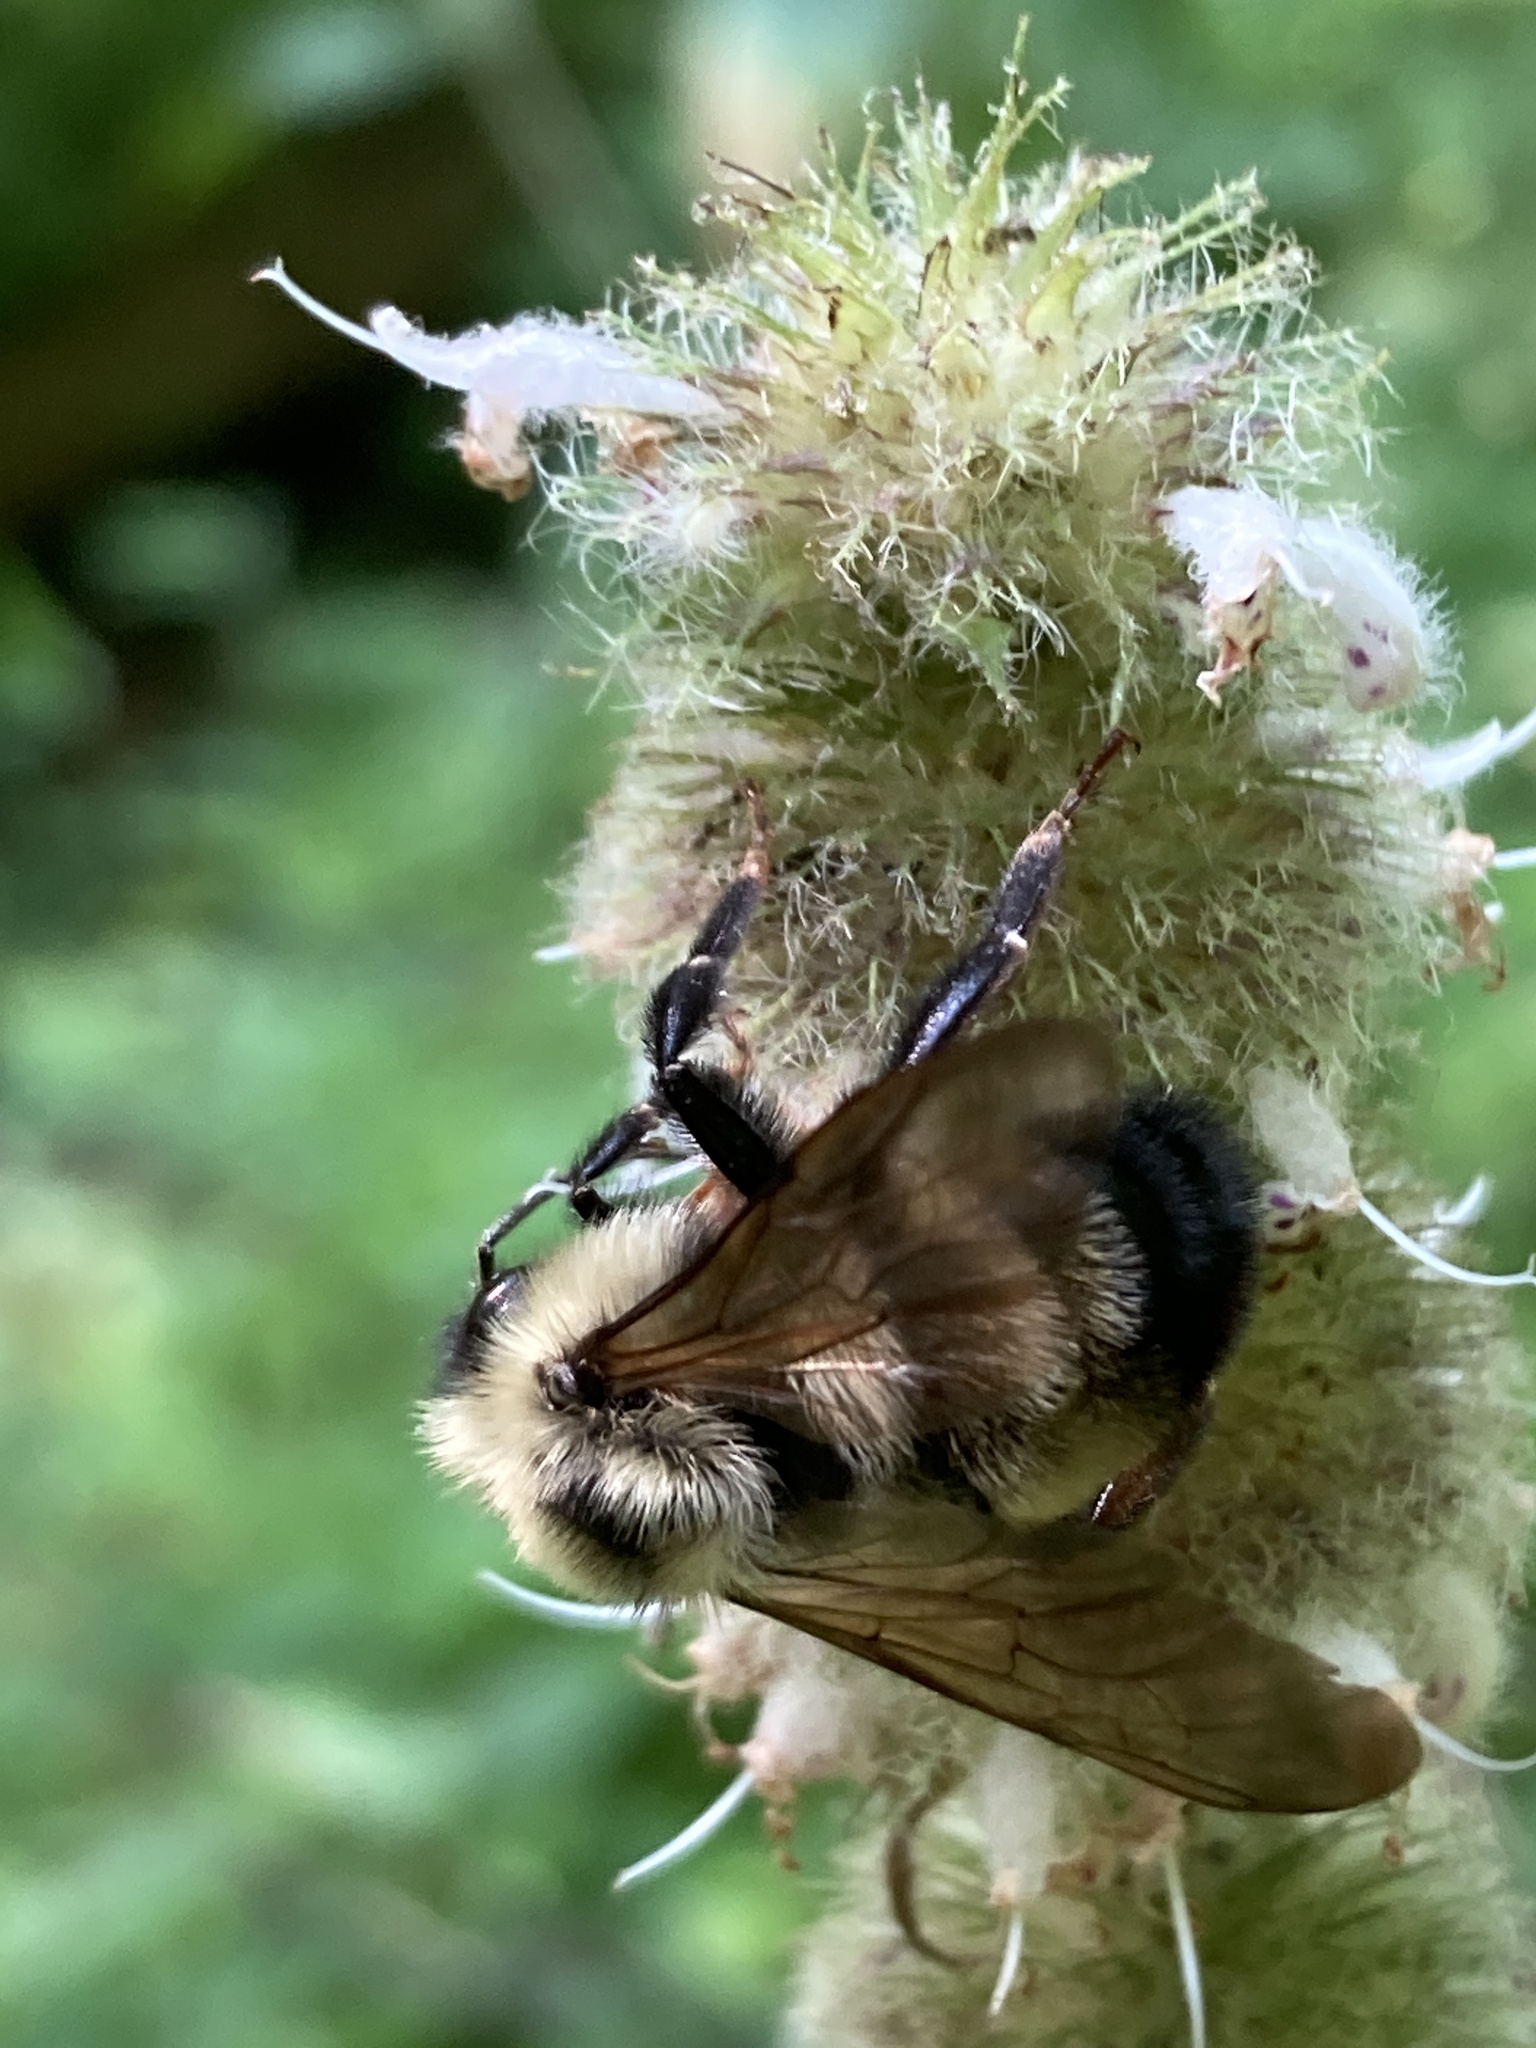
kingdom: Animalia
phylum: Arthropoda
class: Insecta
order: Hymenoptera
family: Apidae
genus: Bombus
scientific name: Bombus citrinus
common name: Lemon cuckoo bumble bee
